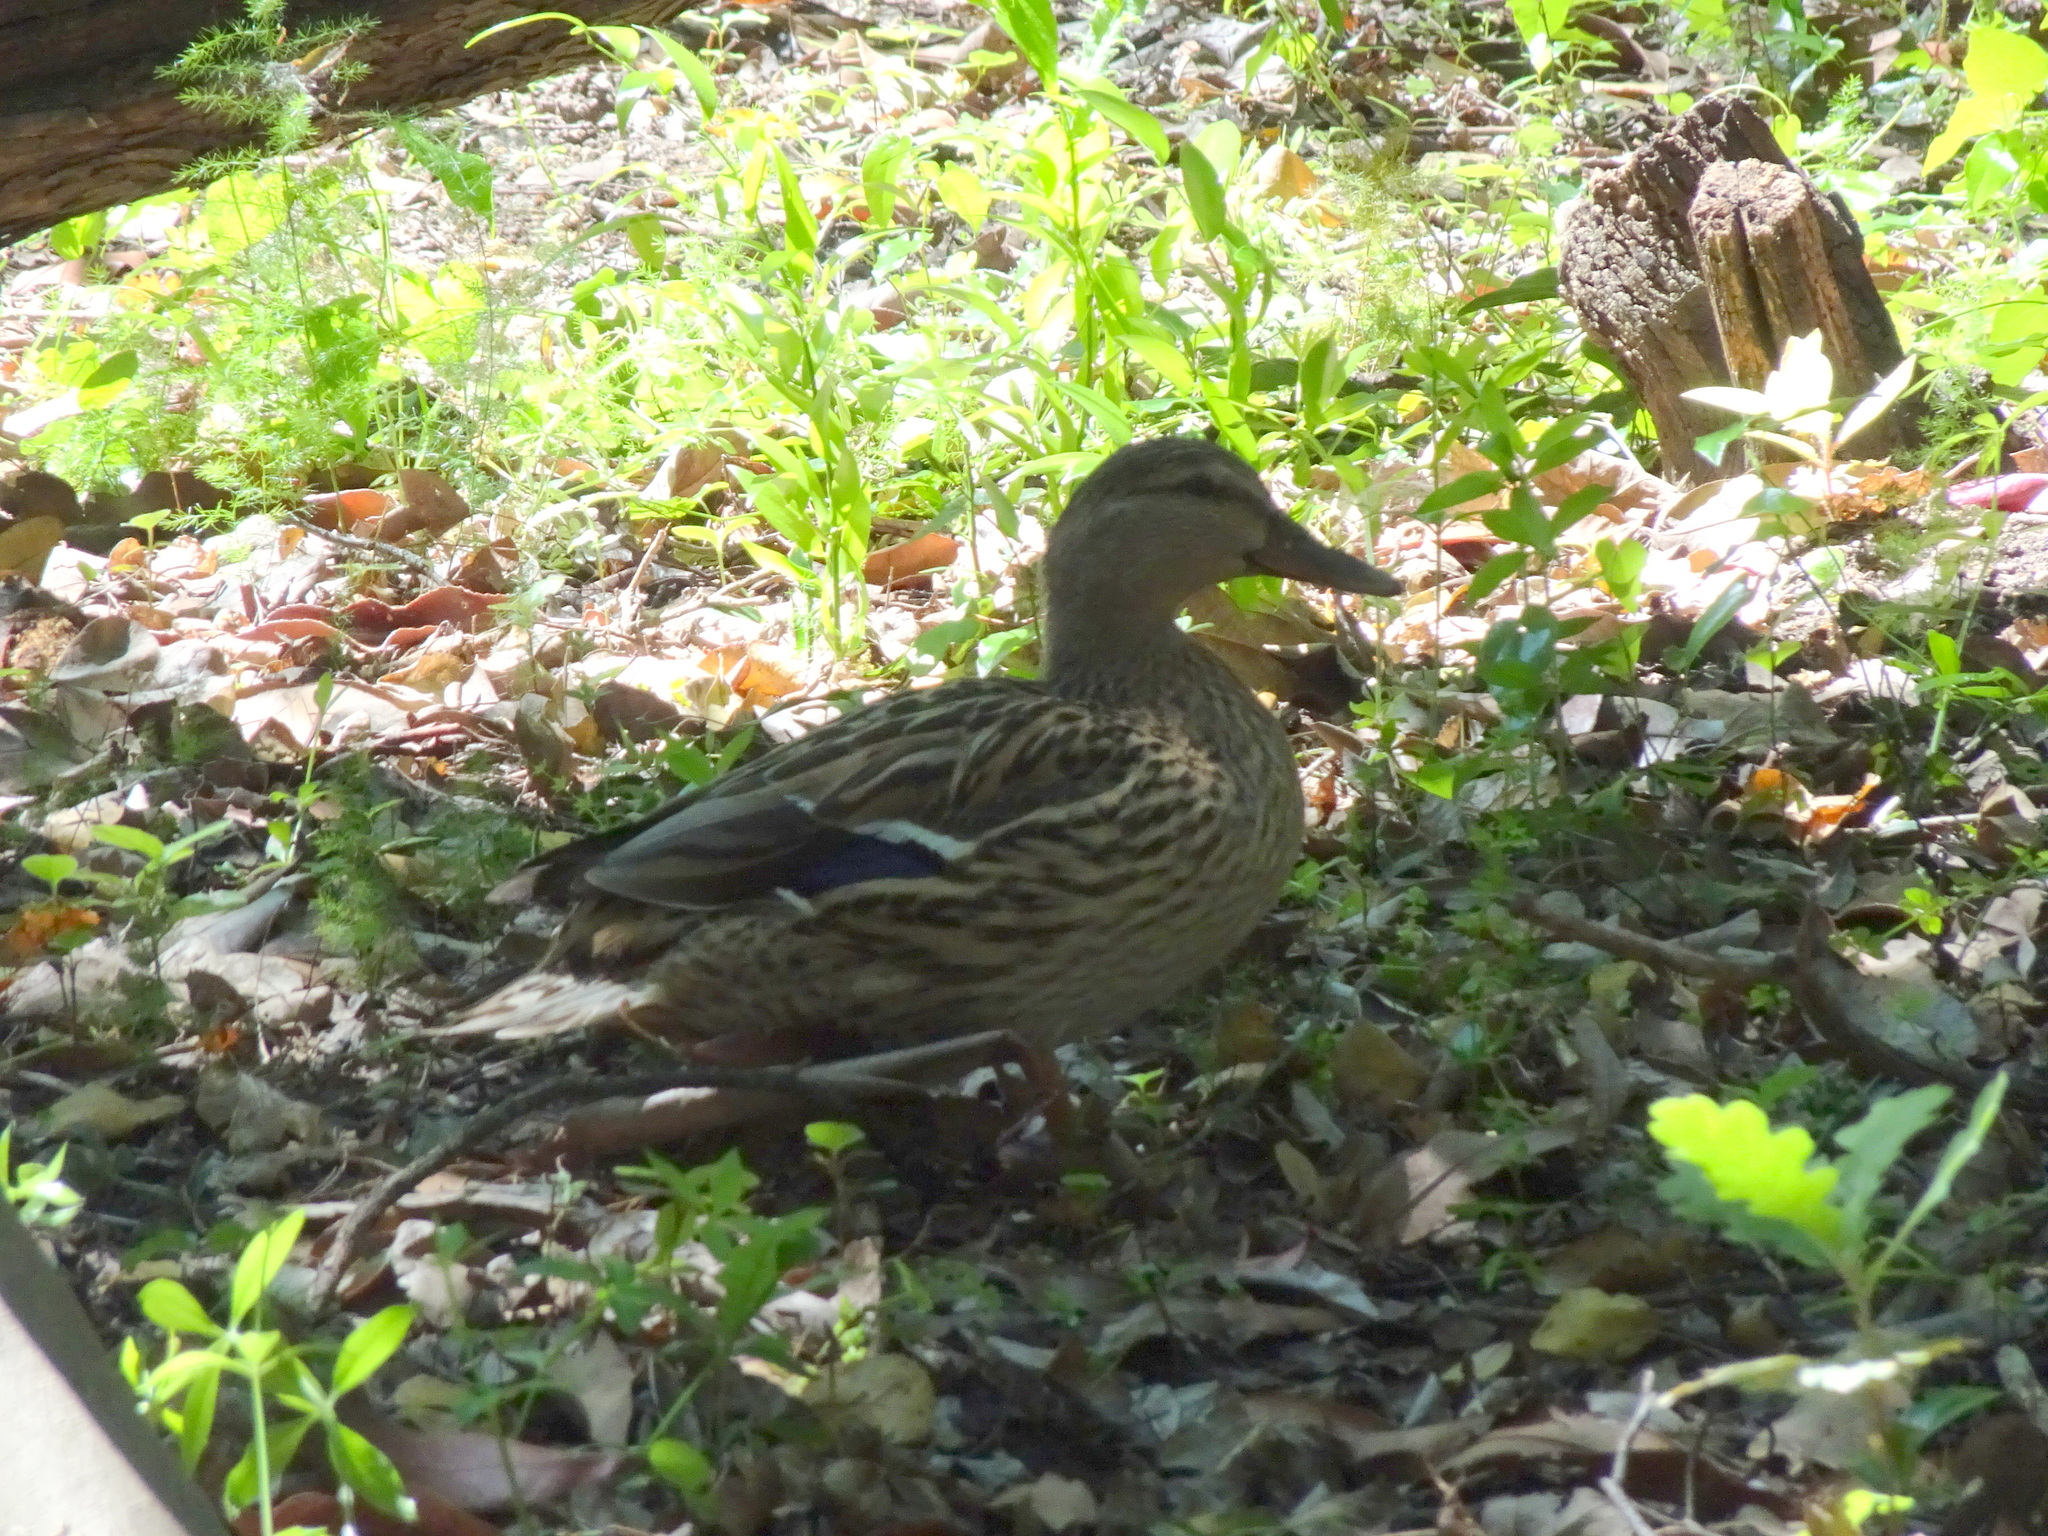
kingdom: Animalia
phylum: Chordata
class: Aves
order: Anseriformes
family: Anatidae
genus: Anas
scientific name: Anas platyrhynchos
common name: Mallard
